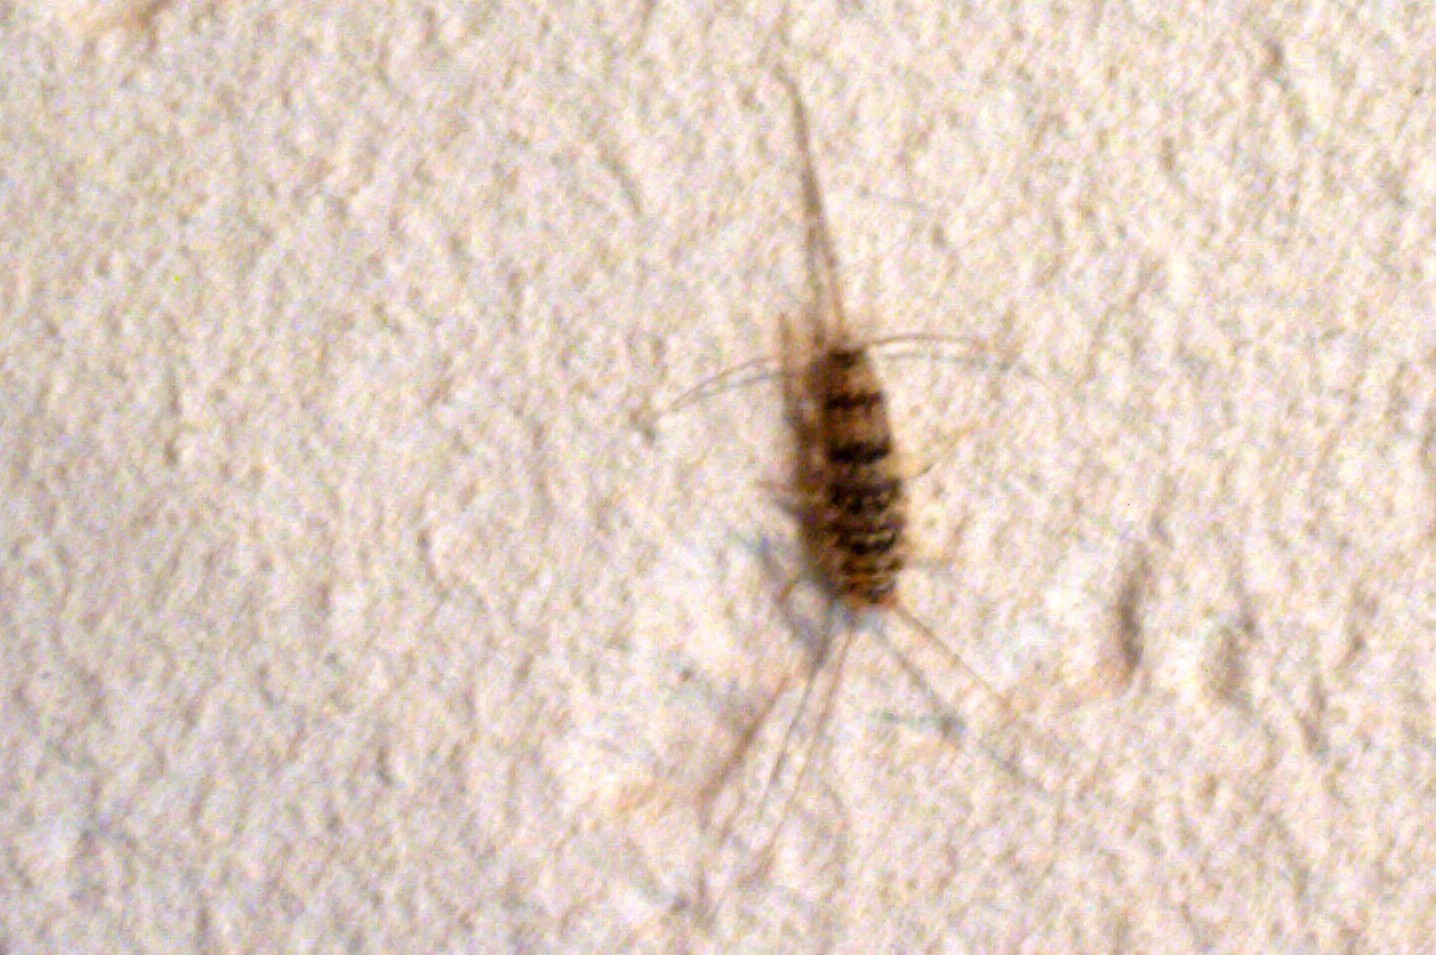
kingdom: Animalia
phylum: Arthropoda
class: Insecta
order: Zygentoma
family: Lepismatidae
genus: Thermobia
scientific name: Thermobia domestica
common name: Firebrat
